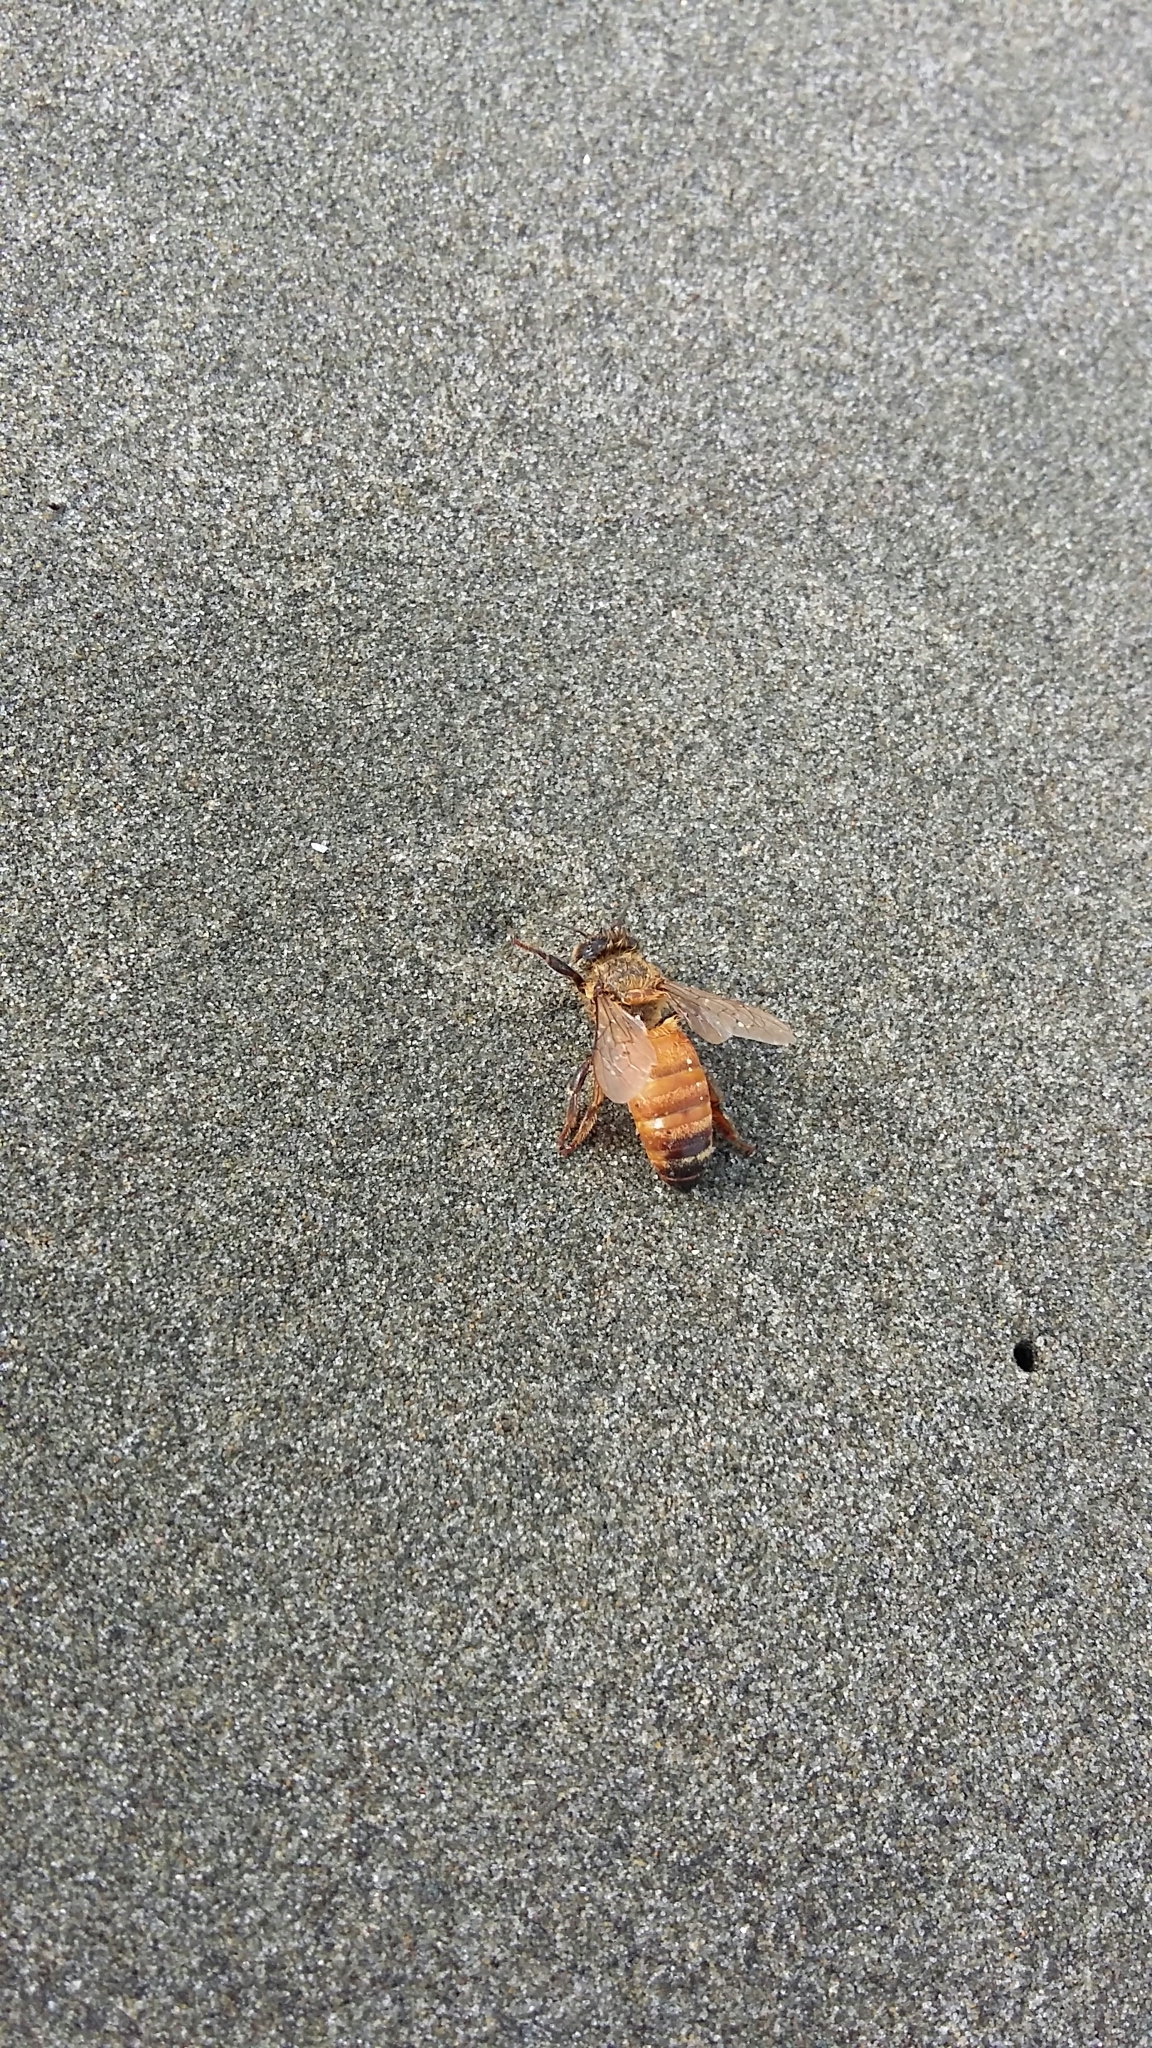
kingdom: Animalia
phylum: Arthropoda
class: Insecta
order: Hymenoptera
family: Apidae
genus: Apis
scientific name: Apis mellifera
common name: Honey bee
